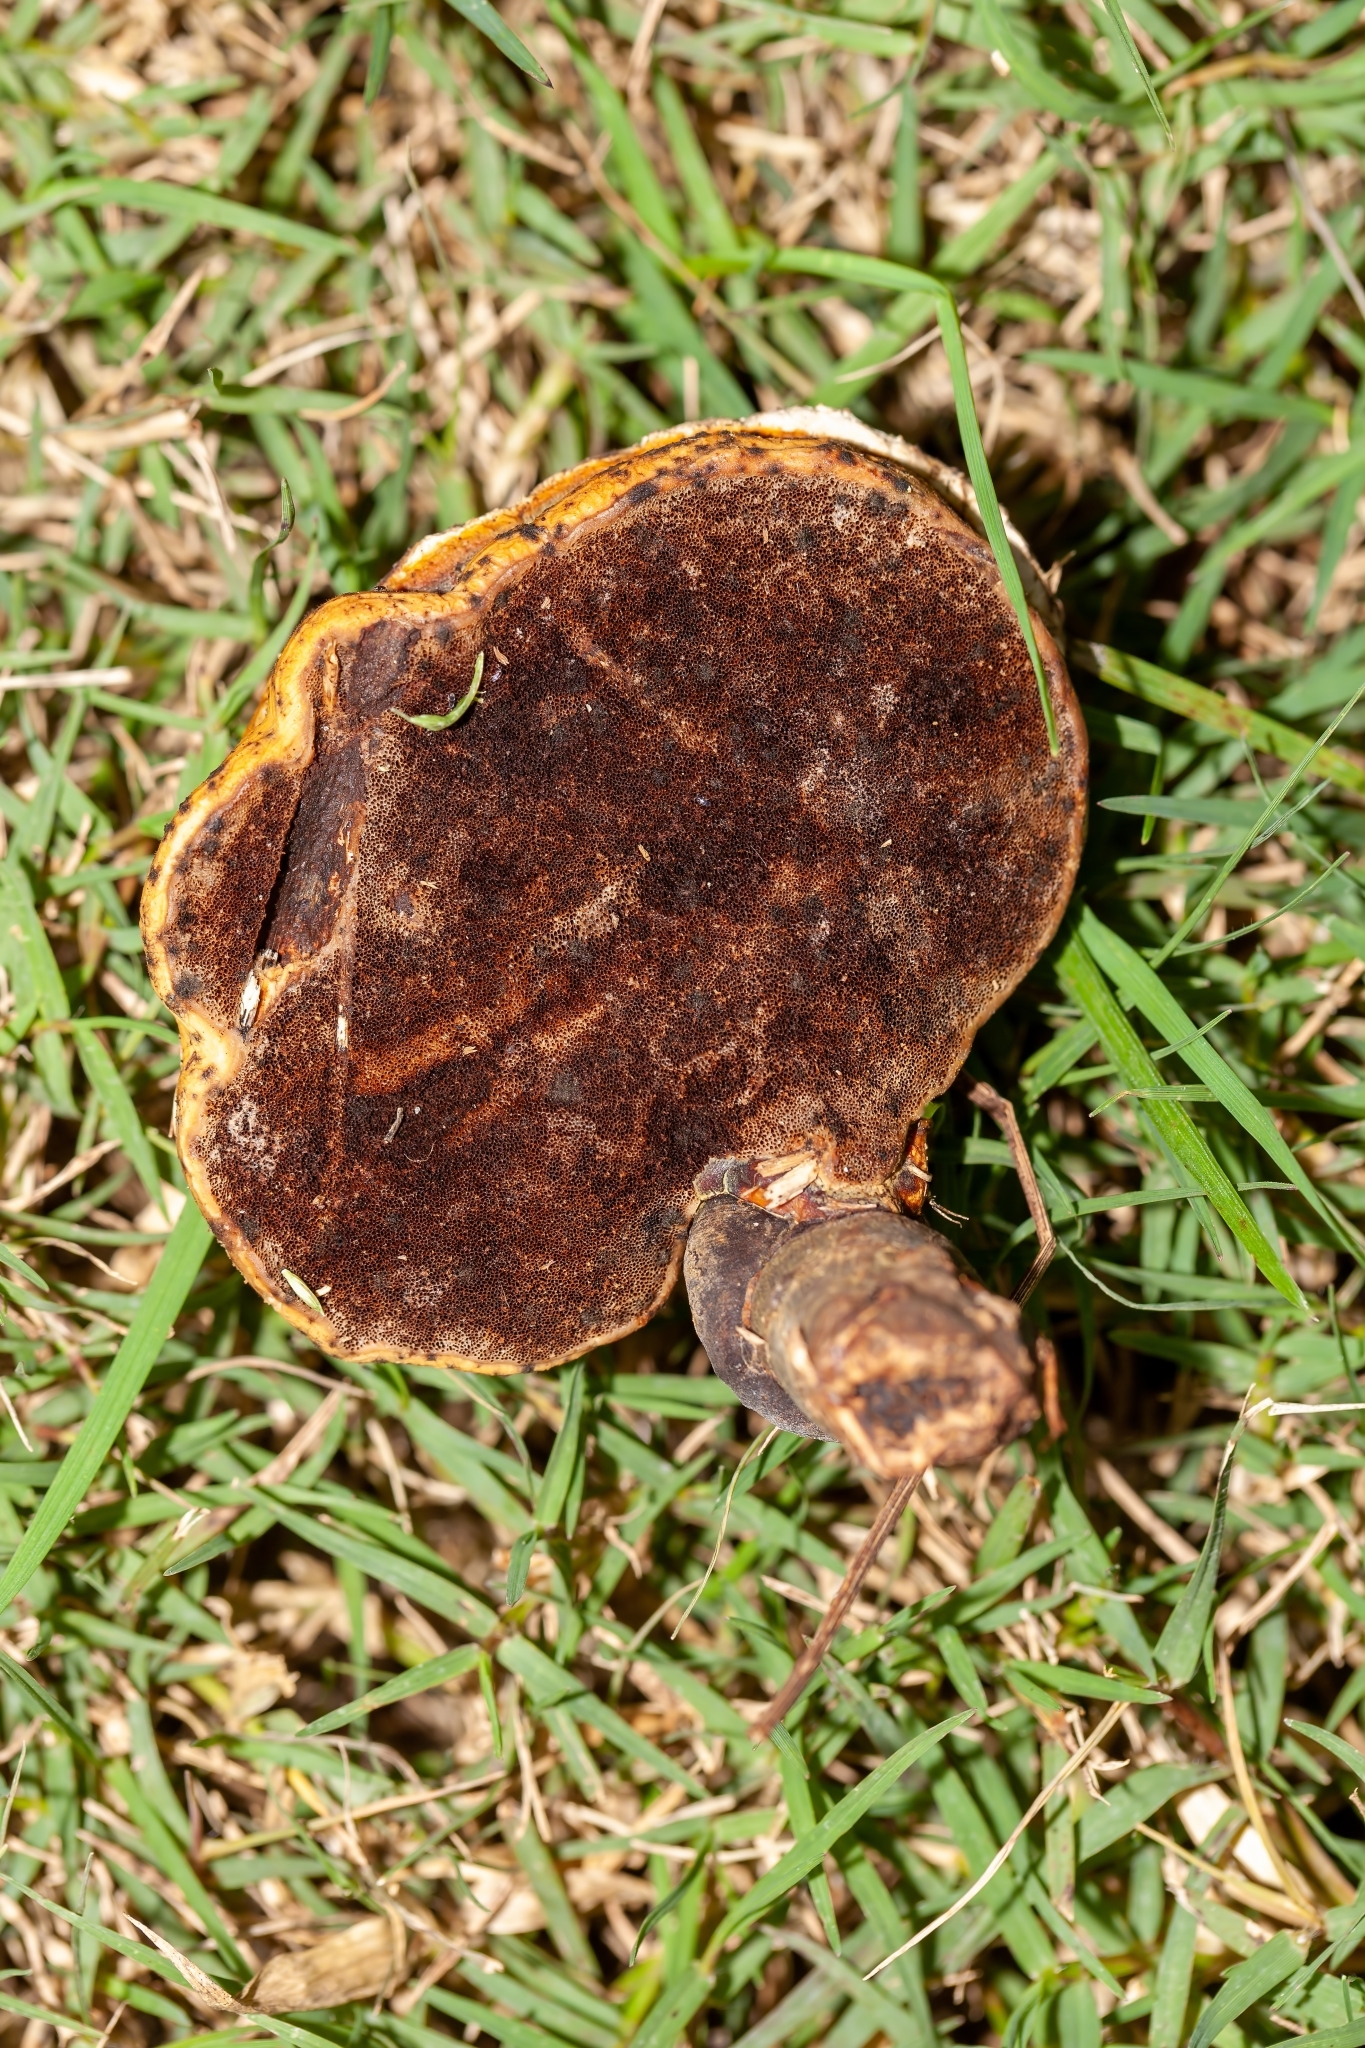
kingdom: Fungi
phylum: Basidiomycota
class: Agaricomycetes
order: Polyporales
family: Polyporaceae
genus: Ganoderma
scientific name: Ganoderma curtisii
